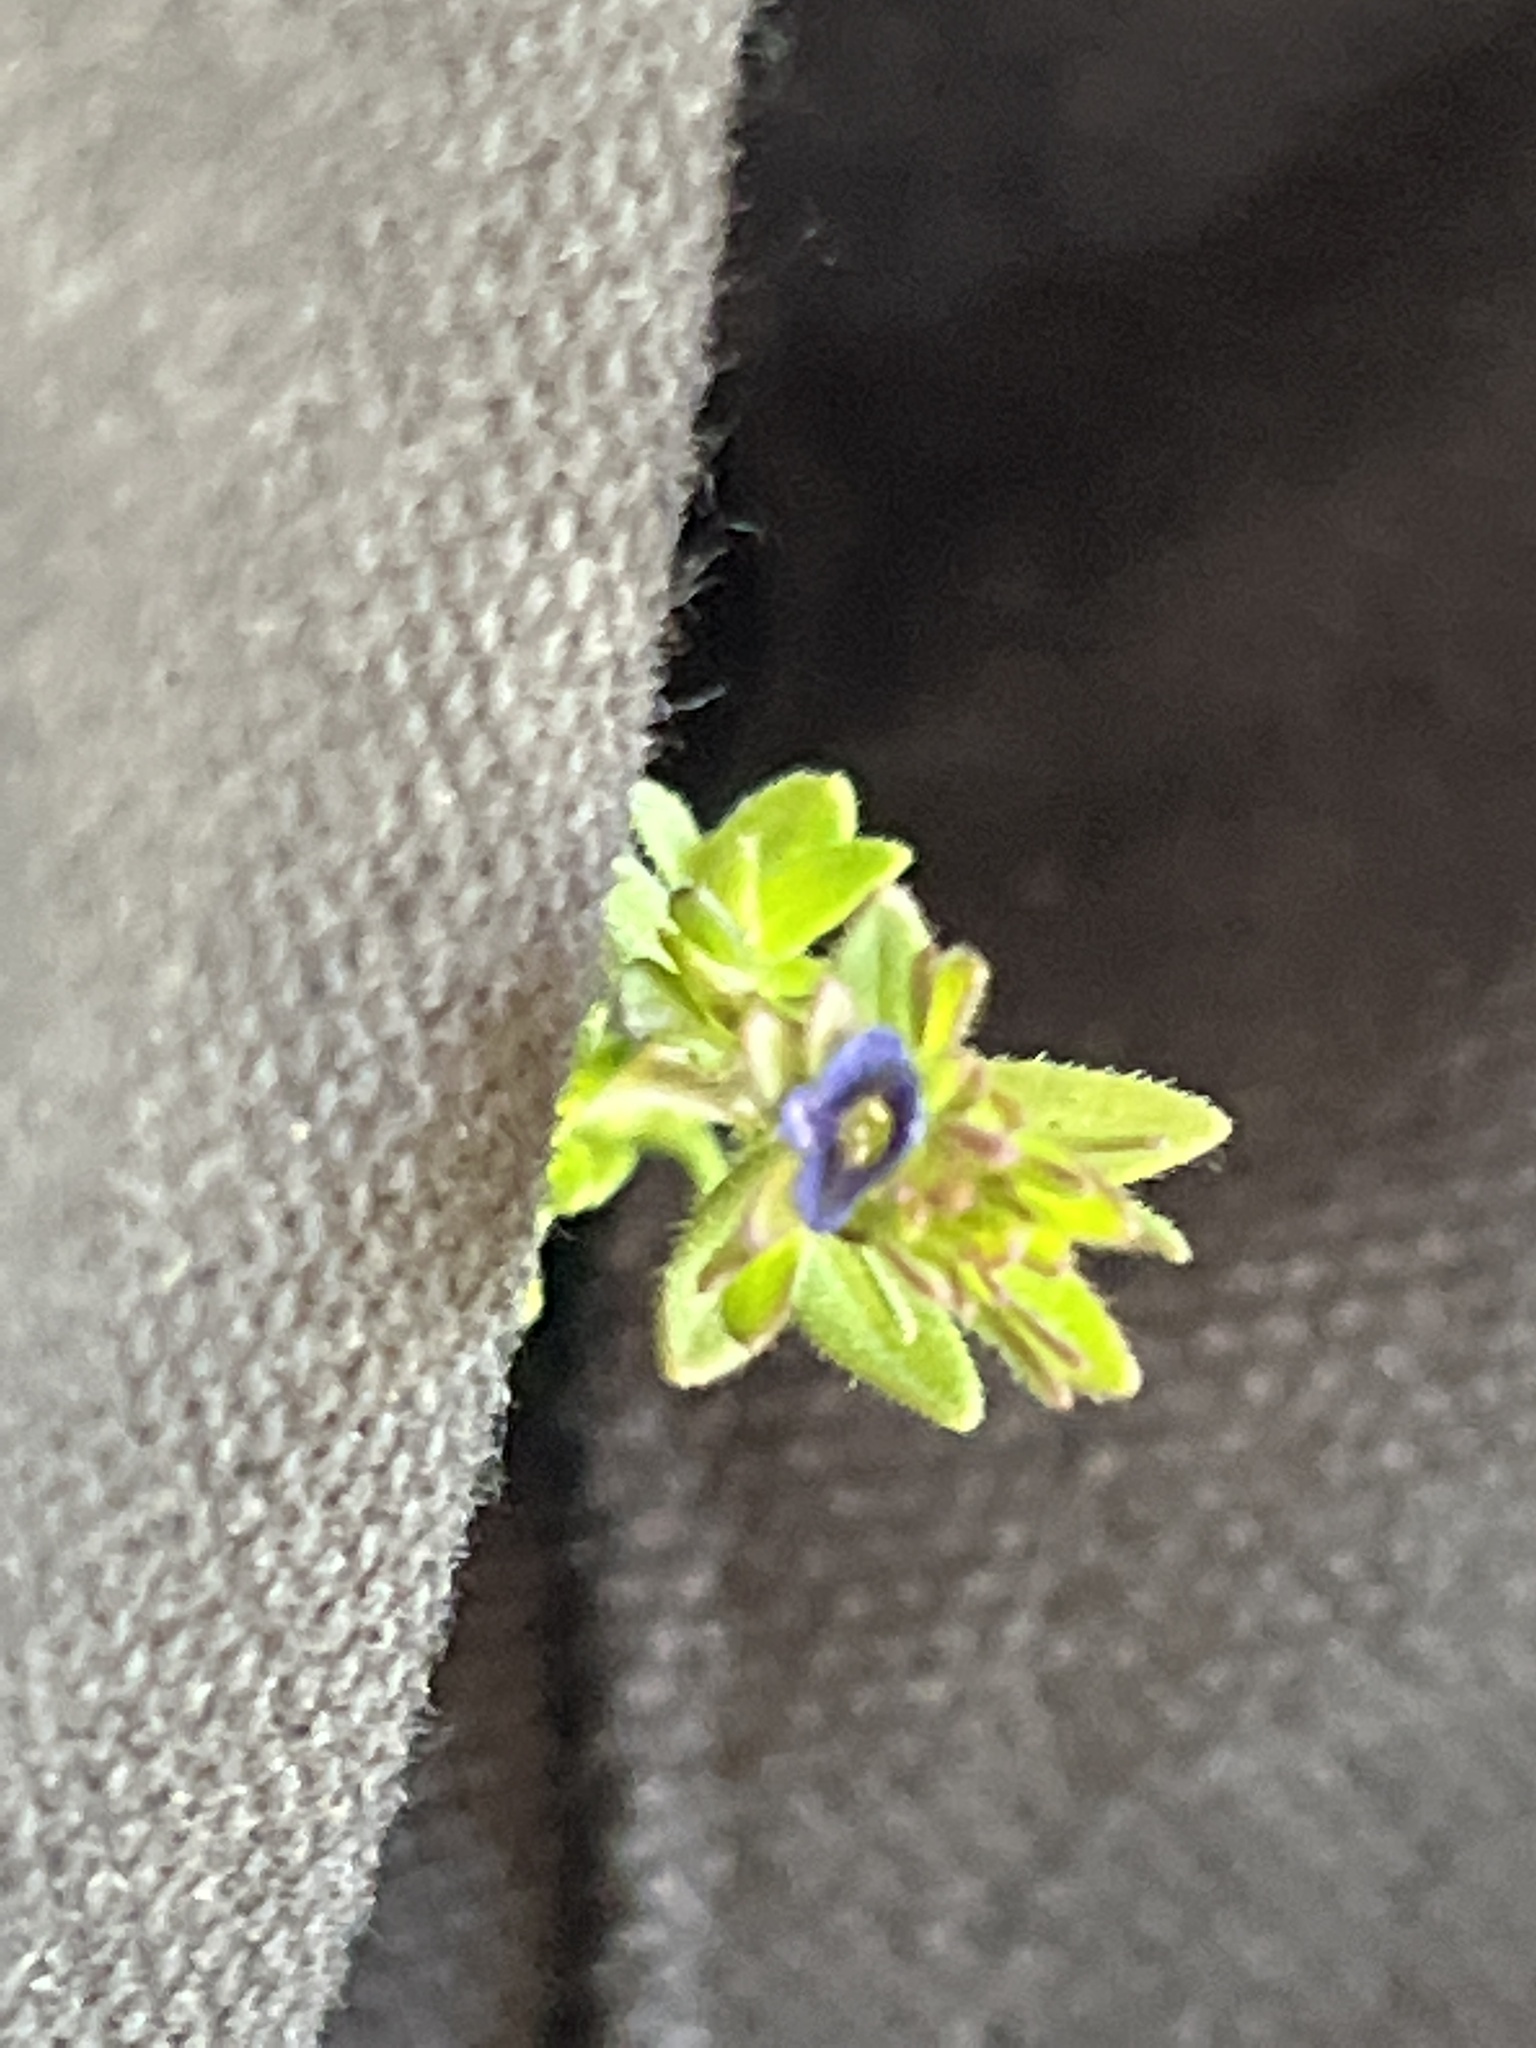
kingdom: Plantae
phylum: Tracheophyta
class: Magnoliopsida
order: Lamiales
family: Plantaginaceae
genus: Veronica
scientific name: Veronica arvensis
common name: Corn speedwell
